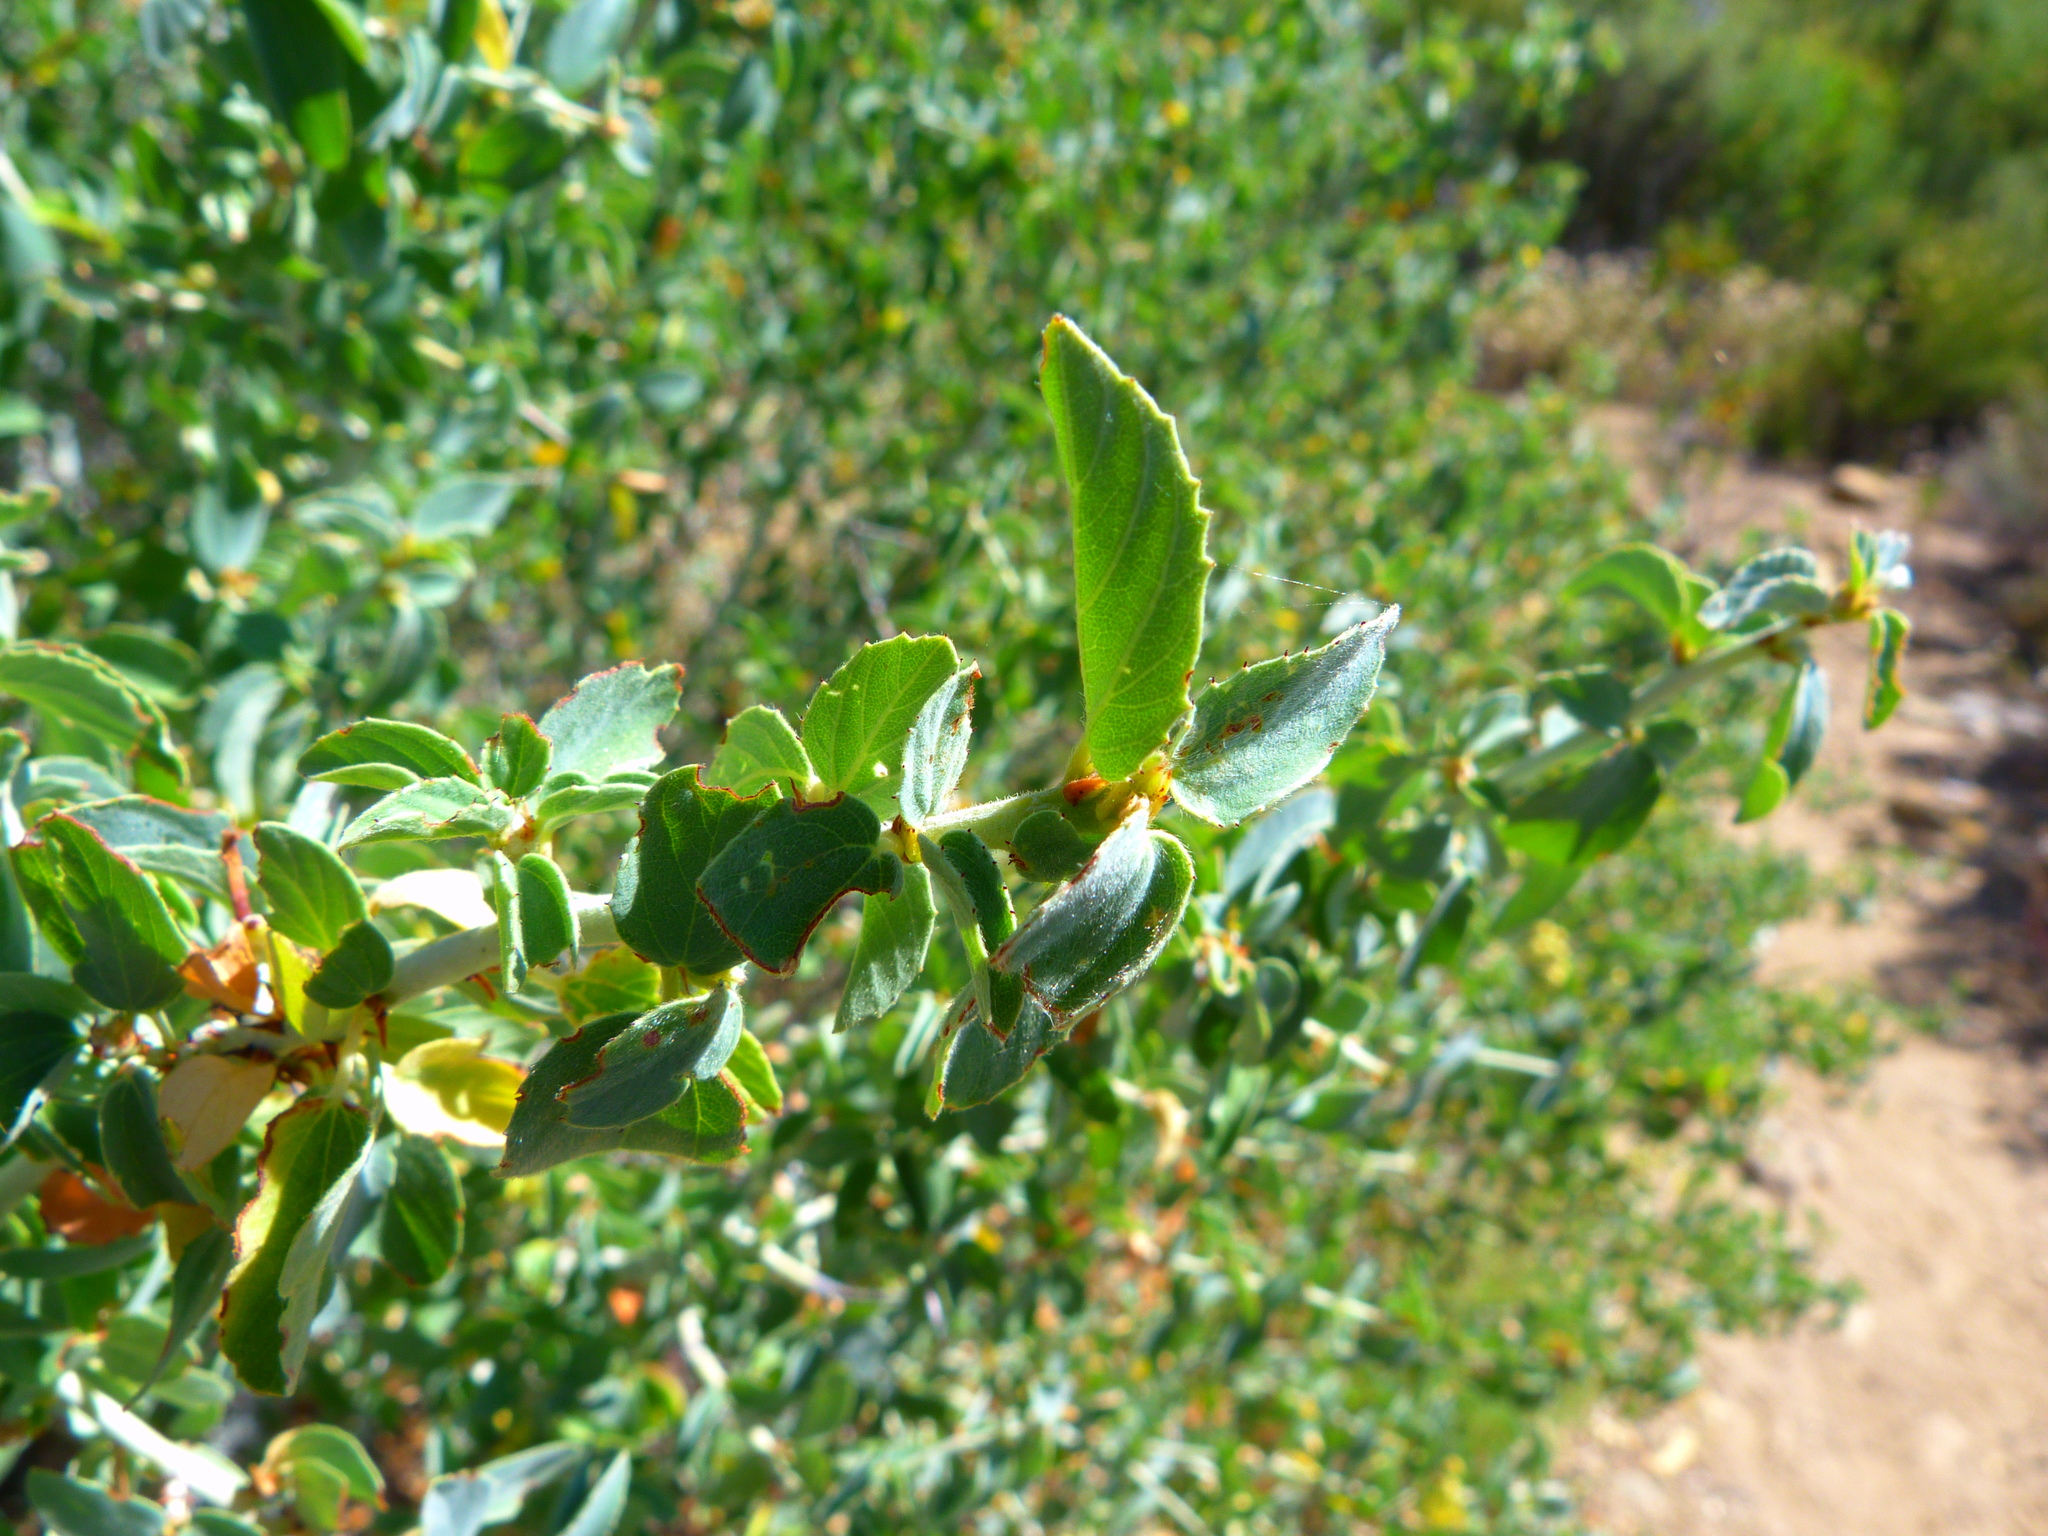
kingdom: Plantae
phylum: Tracheophyta
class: Magnoliopsida
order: Rosales
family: Rhamnaceae
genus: Ceanothus
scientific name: Ceanothus leucodermis
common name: Chaparral whitethorn
